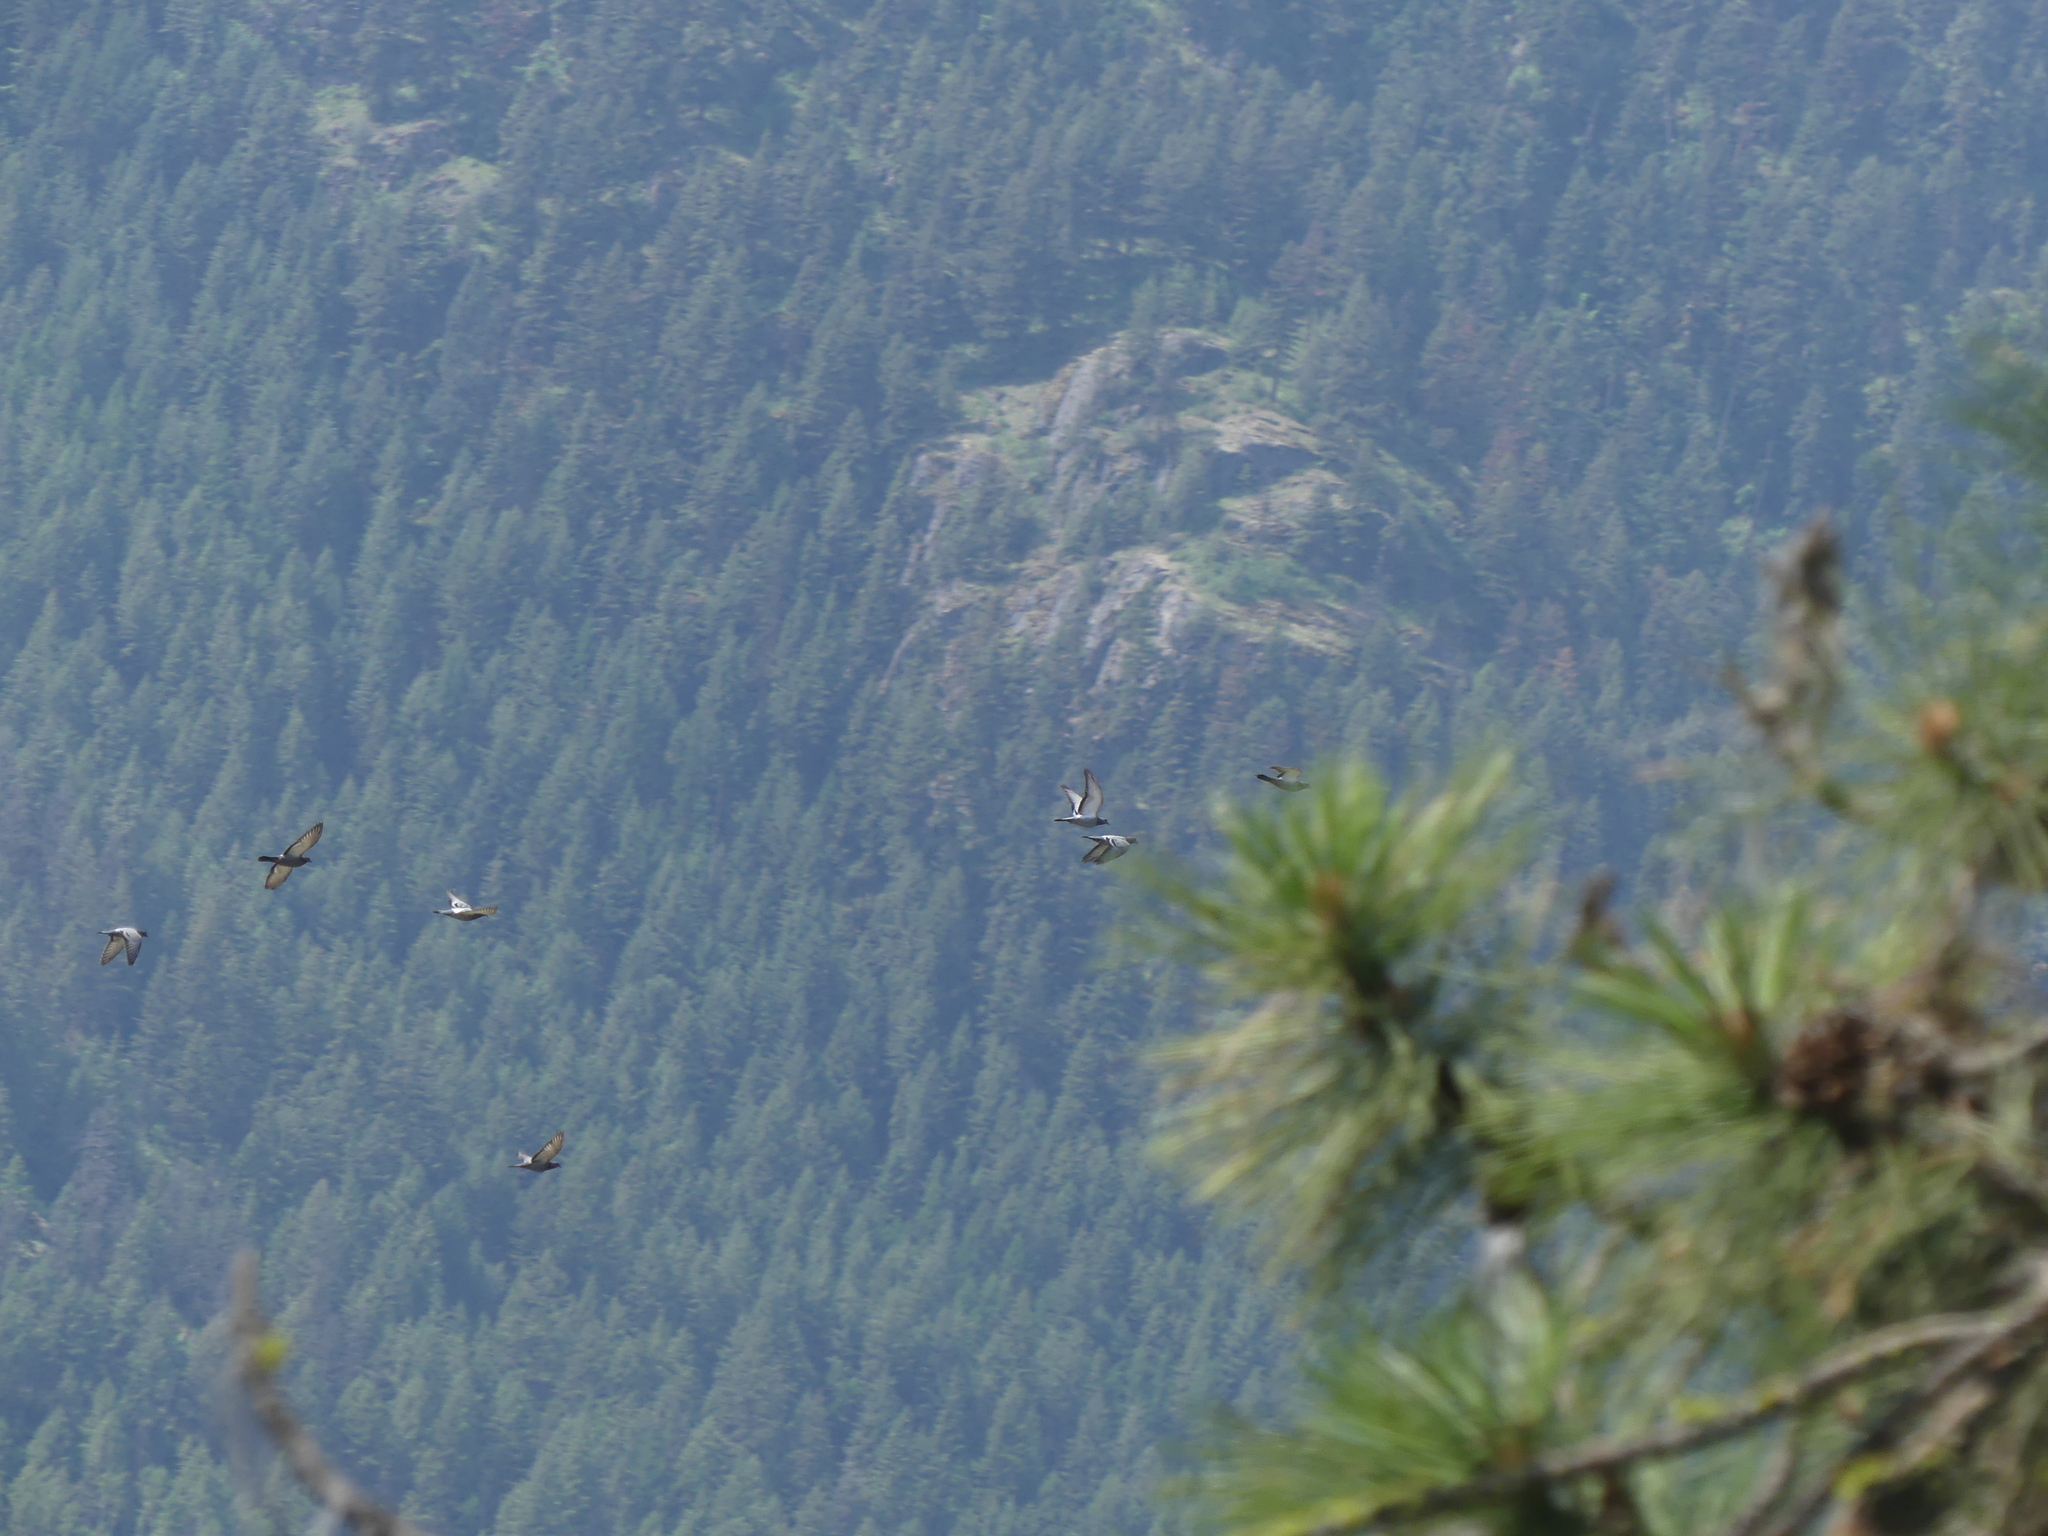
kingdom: Animalia
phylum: Chordata
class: Aves
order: Columbiformes
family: Columbidae
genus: Columba
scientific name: Columba livia
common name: Rock pigeon
